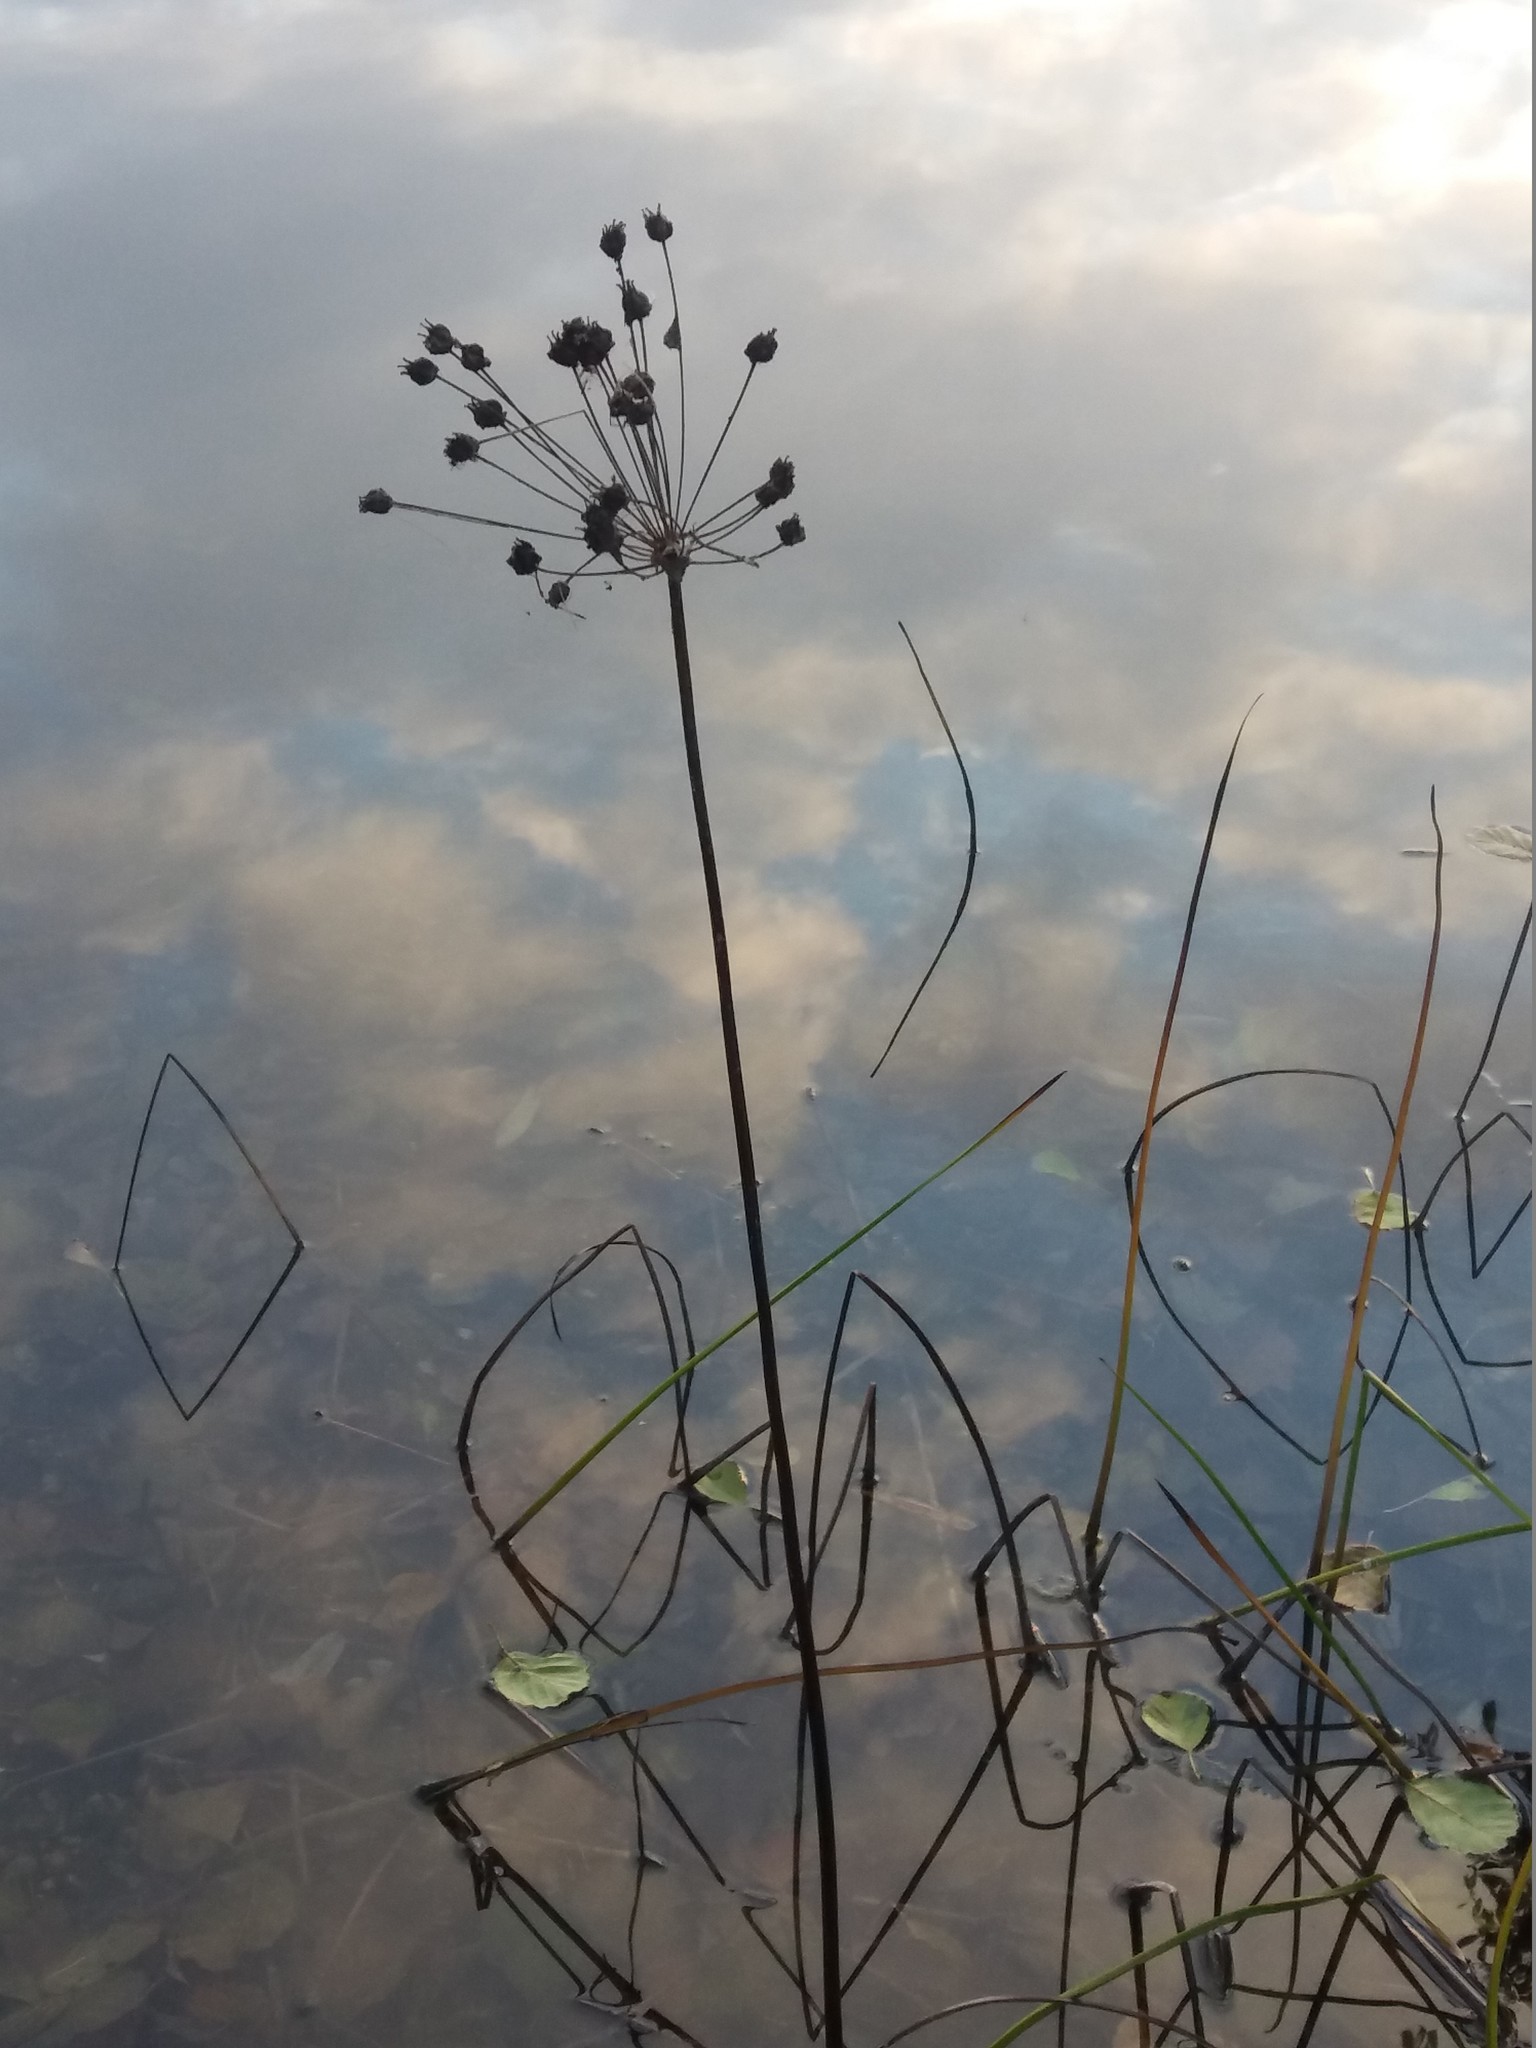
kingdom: Plantae
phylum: Tracheophyta
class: Liliopsida
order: Alismatales
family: Butomaceae
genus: Butomus
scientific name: Butomus umbellatus
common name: Flowering-rush
